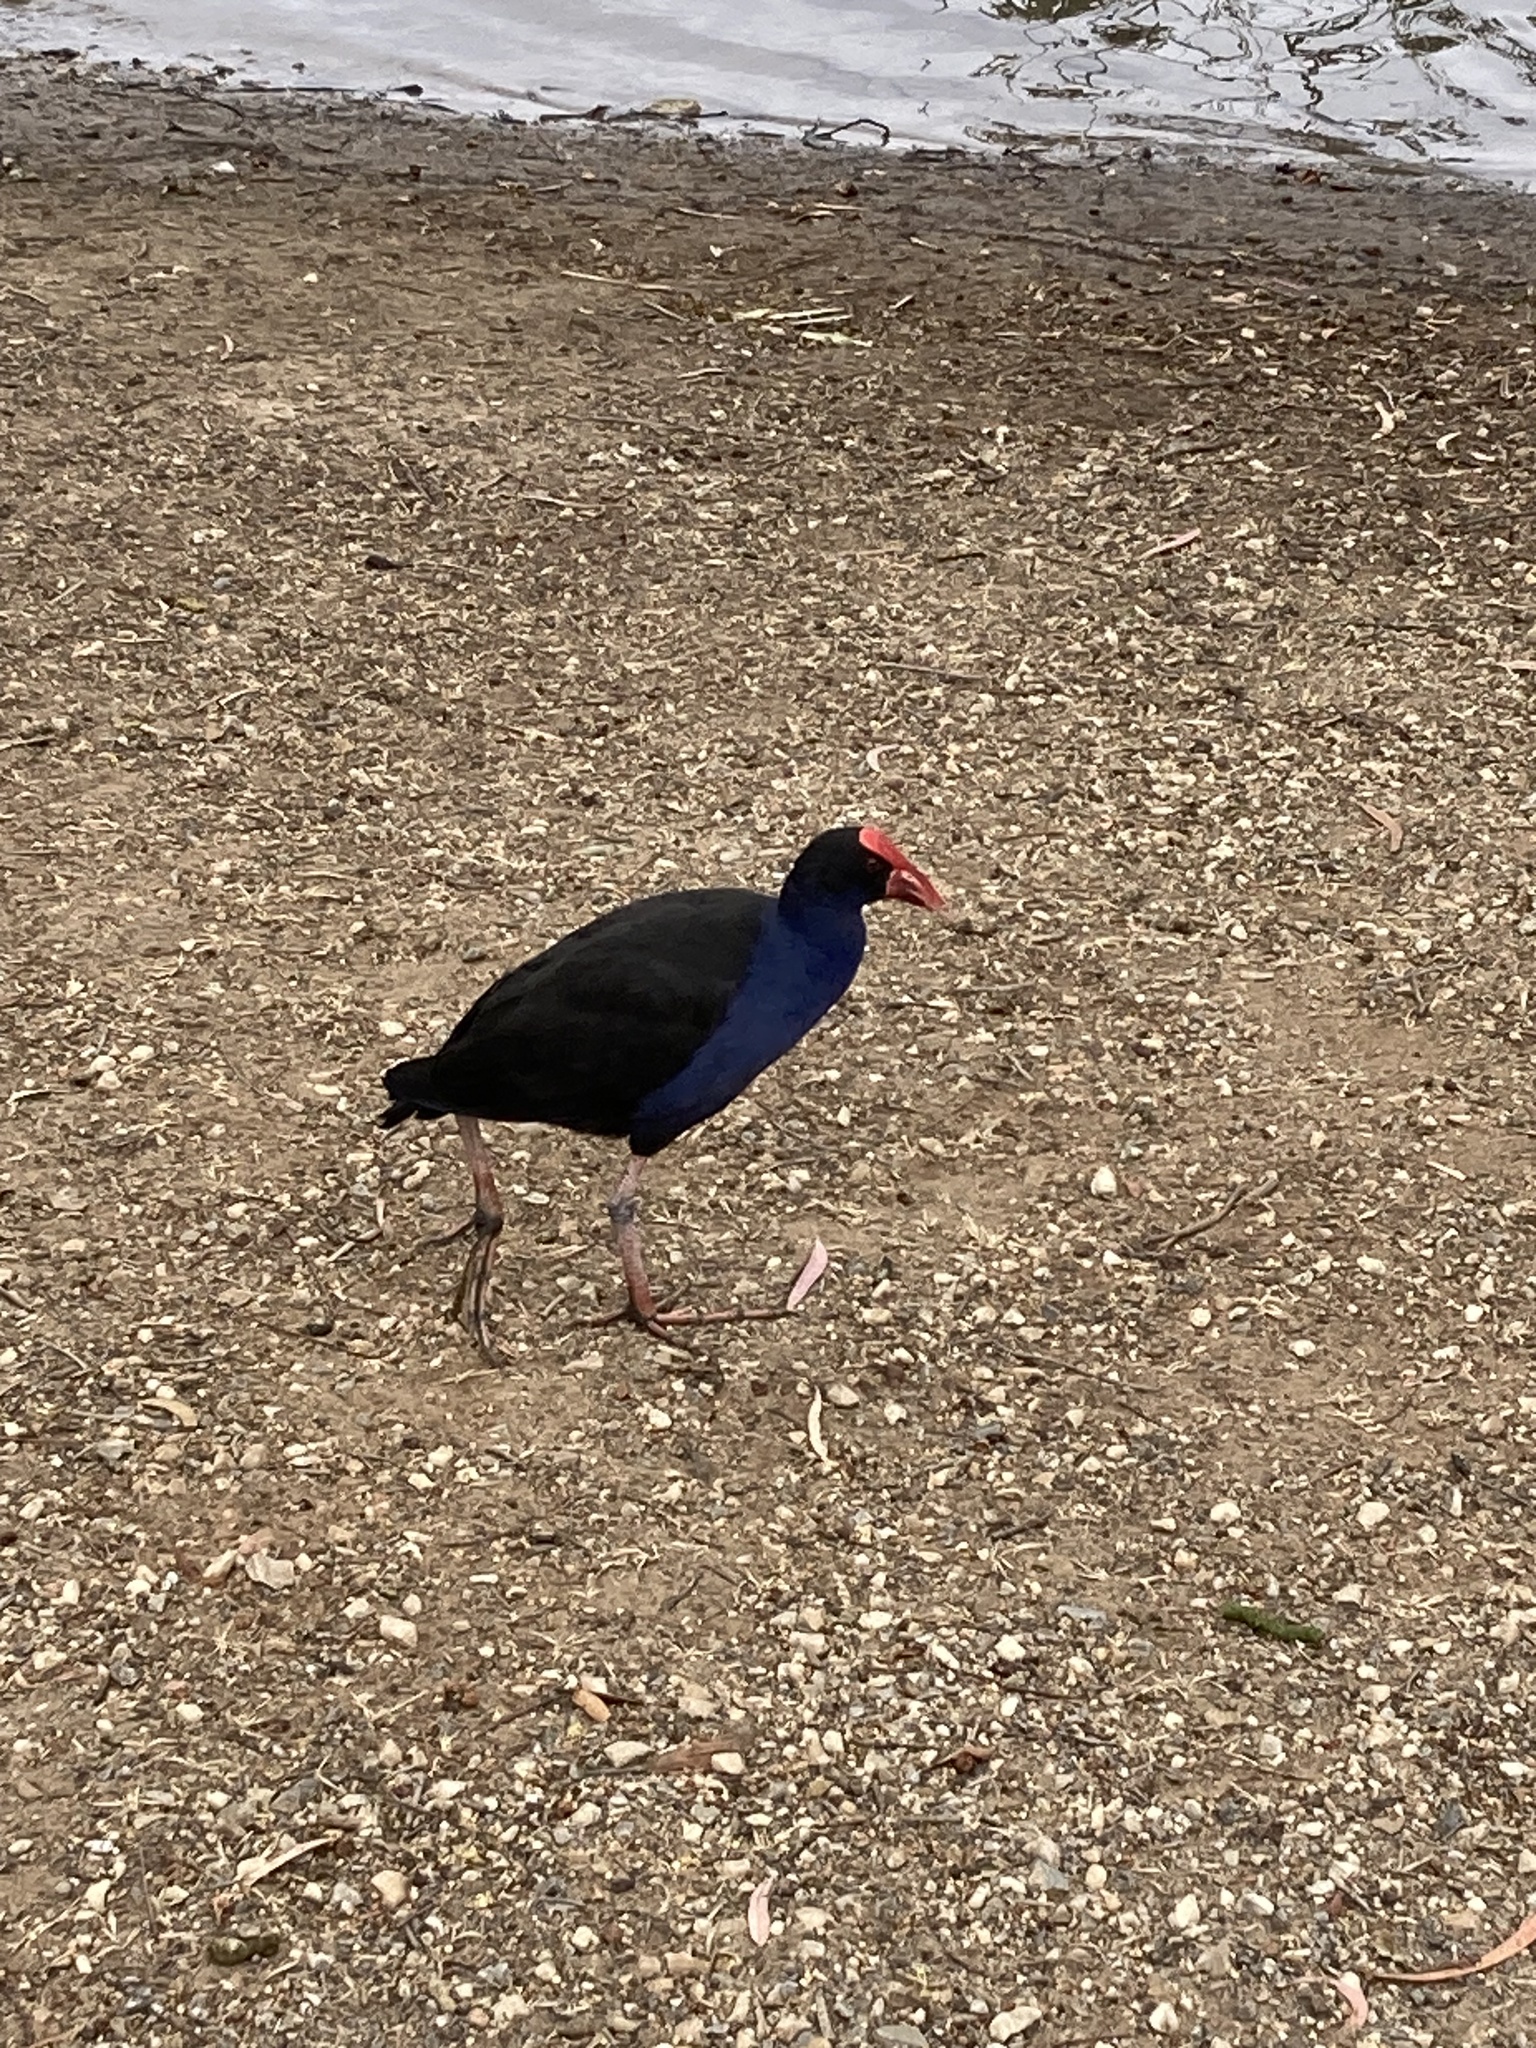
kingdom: Animalia
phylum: Chordata
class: Aves
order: Gruiformes
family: Rallidae
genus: Porphyrio
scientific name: Porphyrio melanotus
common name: Australasian swamphen
